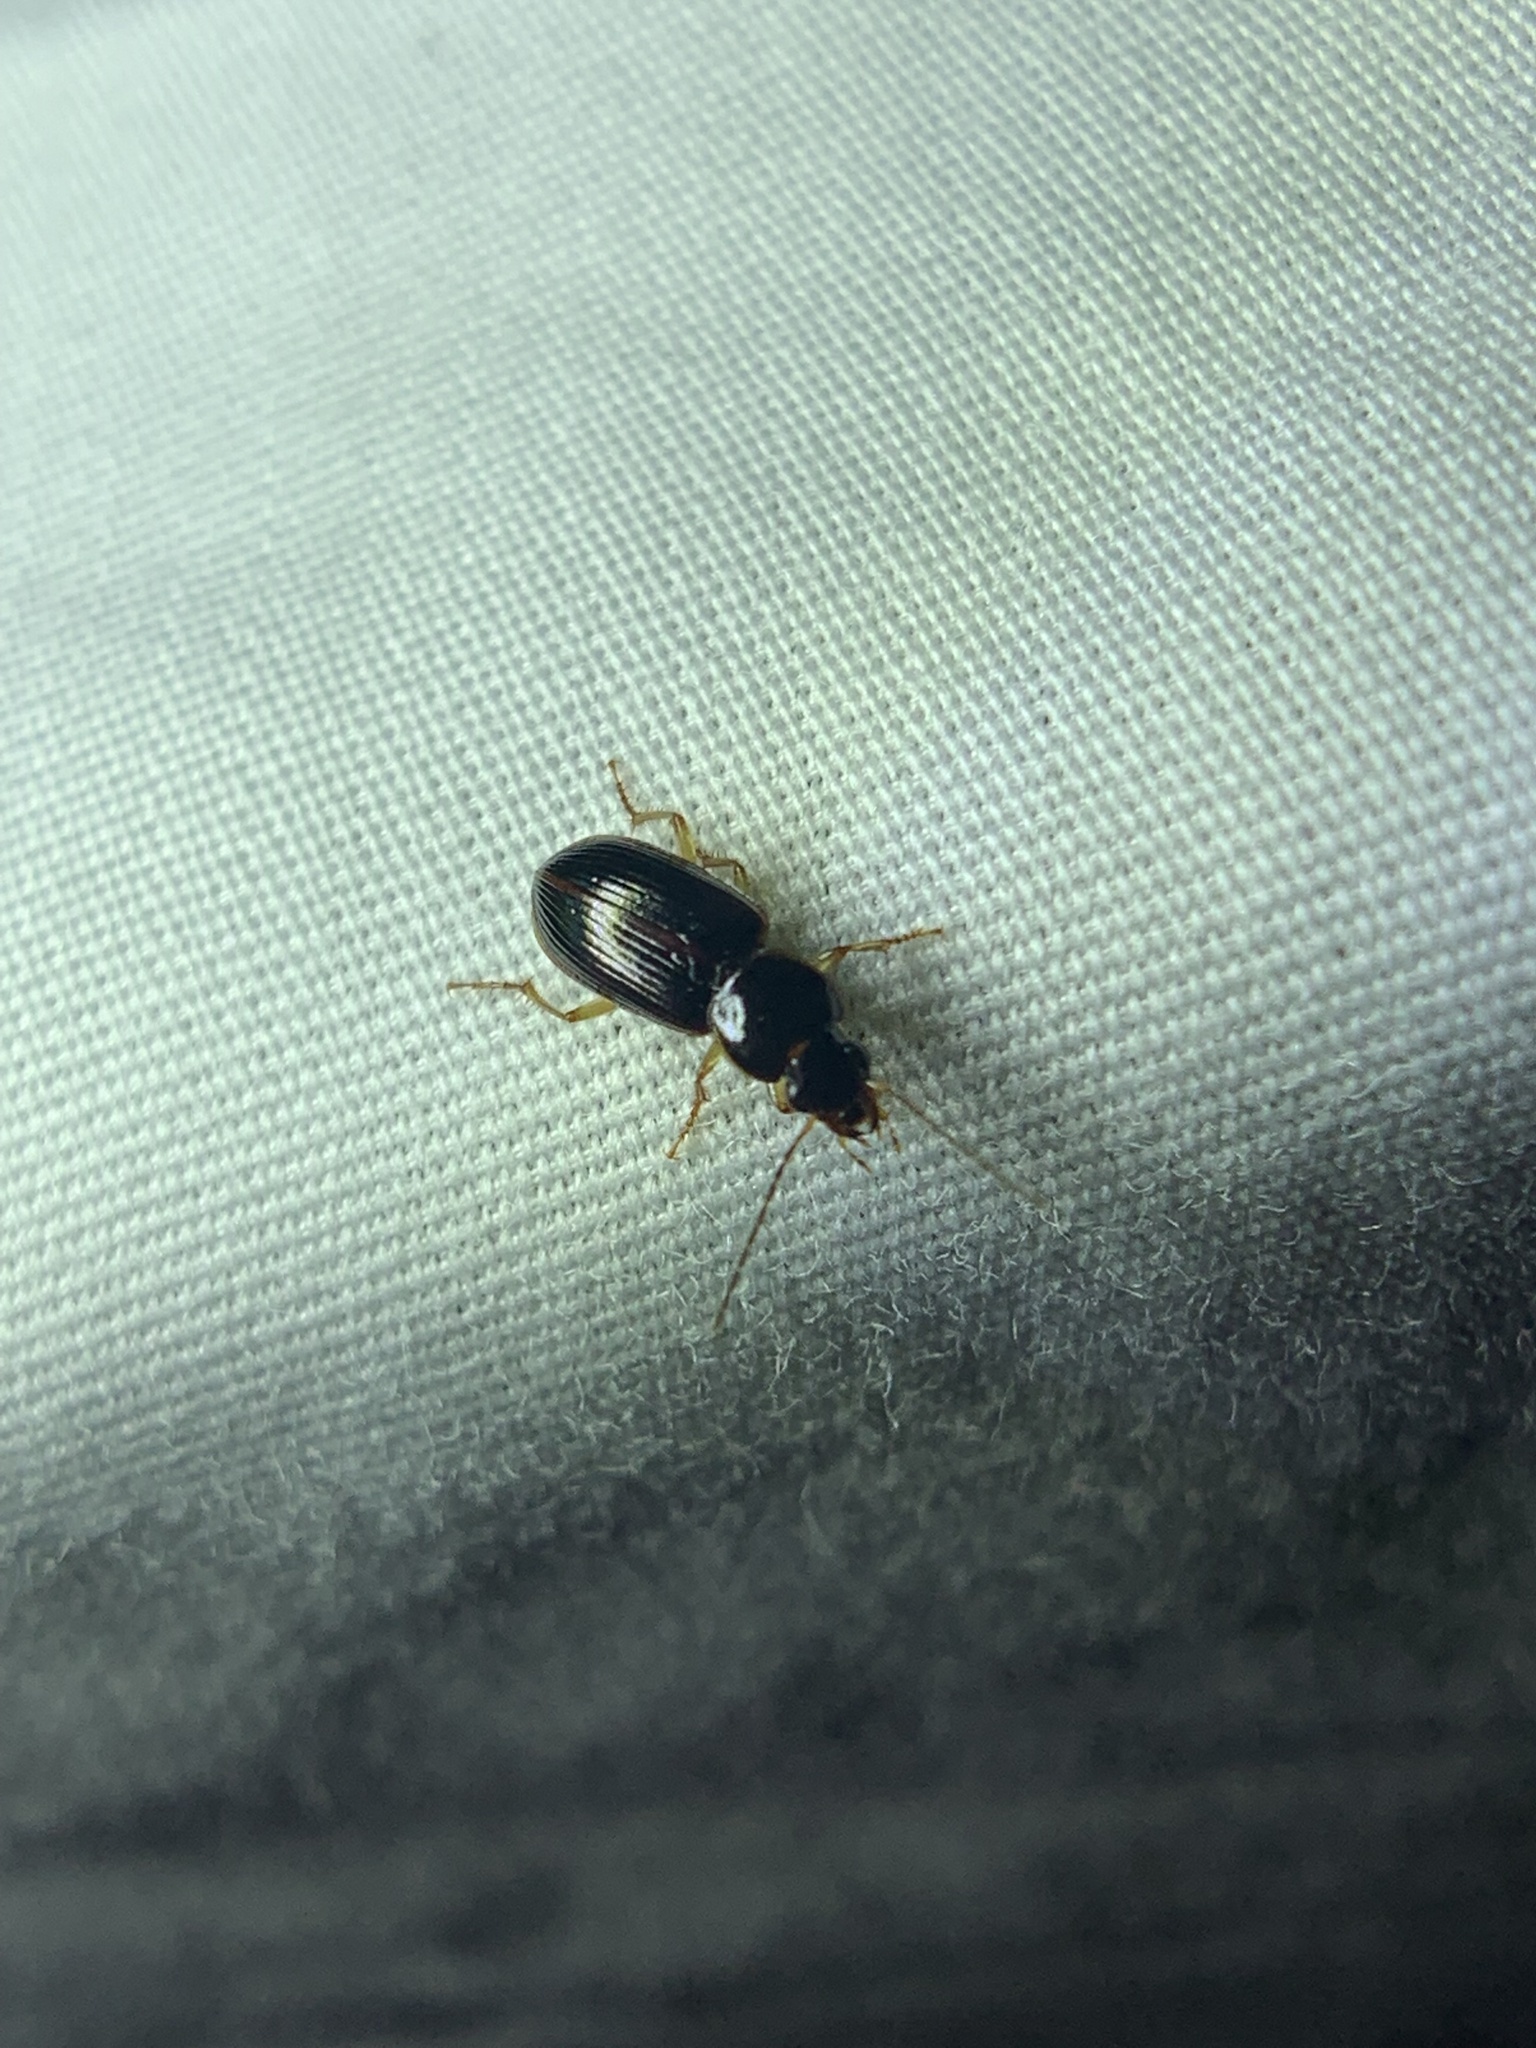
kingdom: Animalia
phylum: Arthropoda
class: Insecta
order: Coleoptera
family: Carabidae
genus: Stenolophus
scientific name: Stenolophus ochropezus
